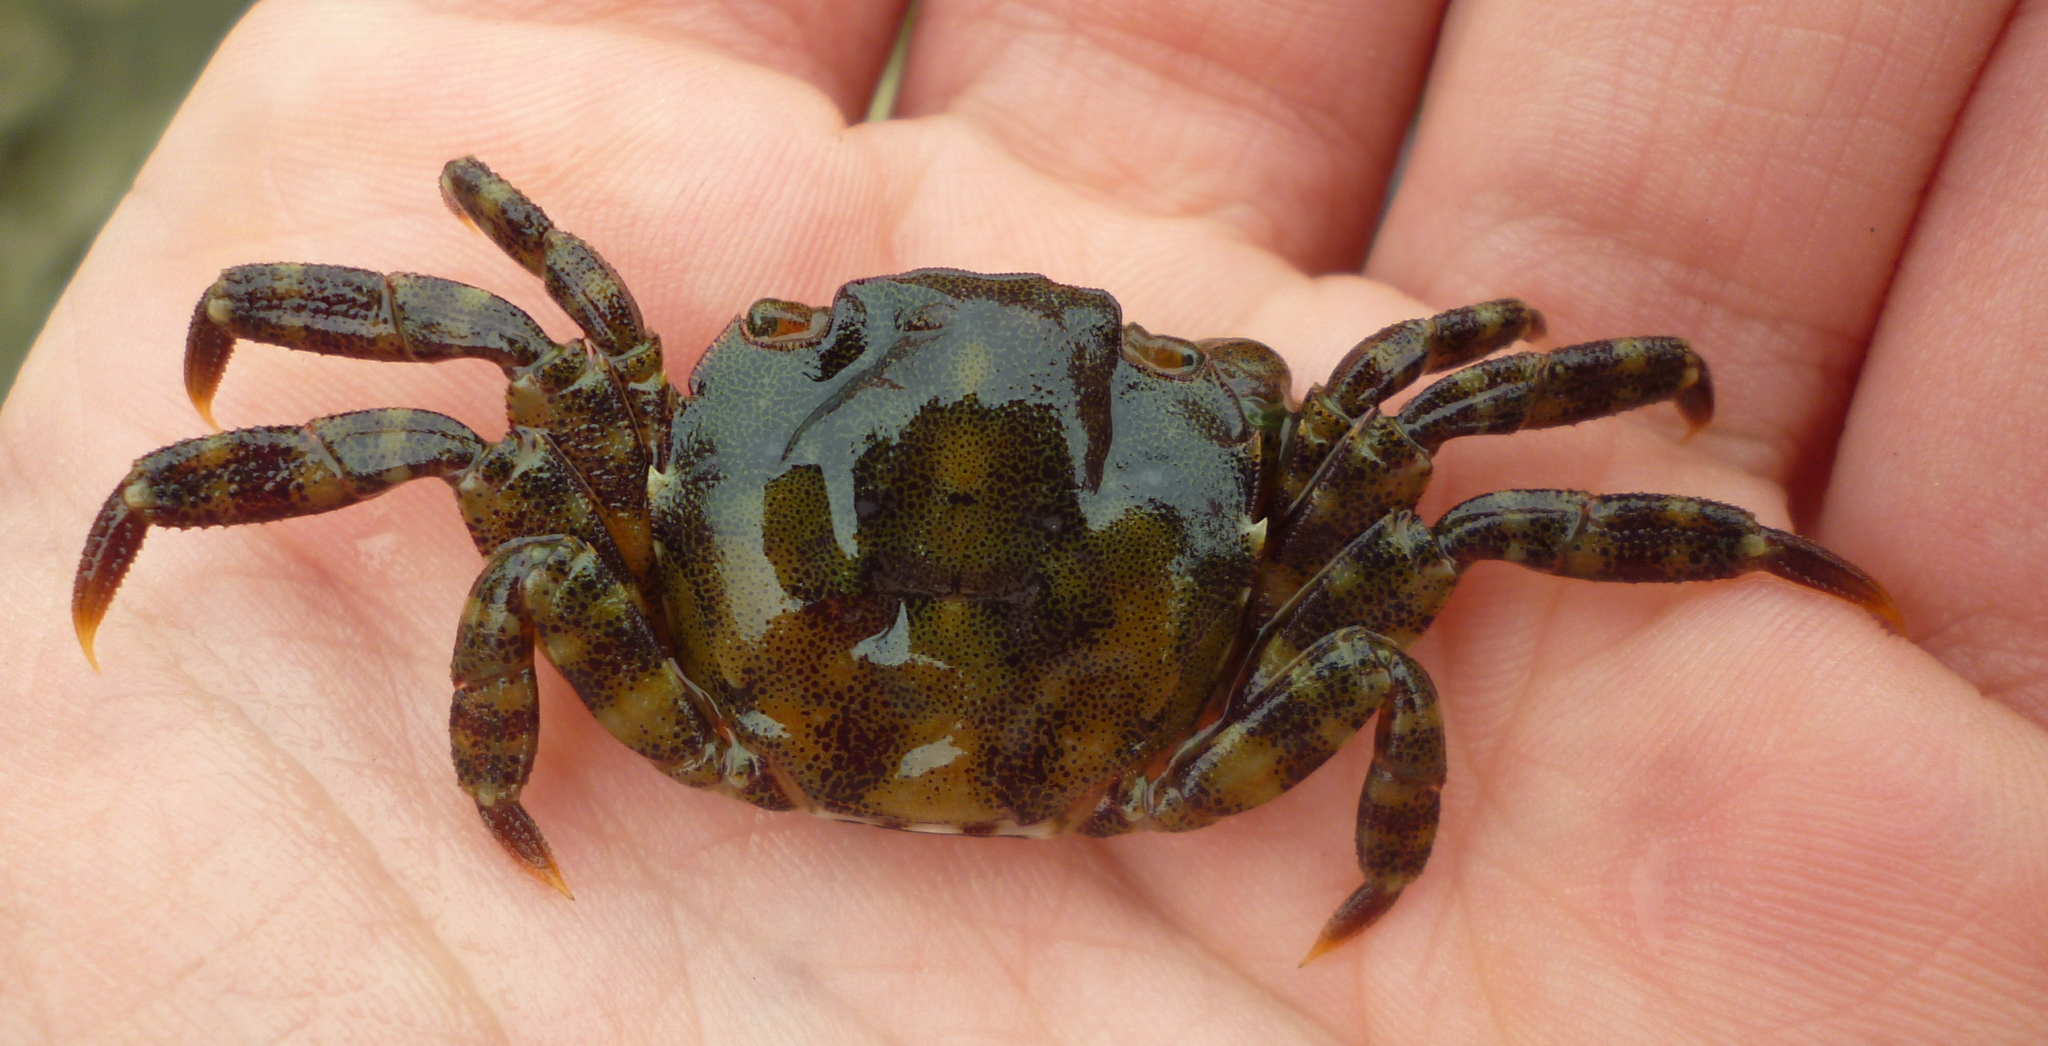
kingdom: Animalia
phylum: Arthropoda
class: Malacostraca
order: Decapoda
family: Varunidae
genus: Hemigrapsus
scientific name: Hemigrapsus sanguineus
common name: Asian shore crab
